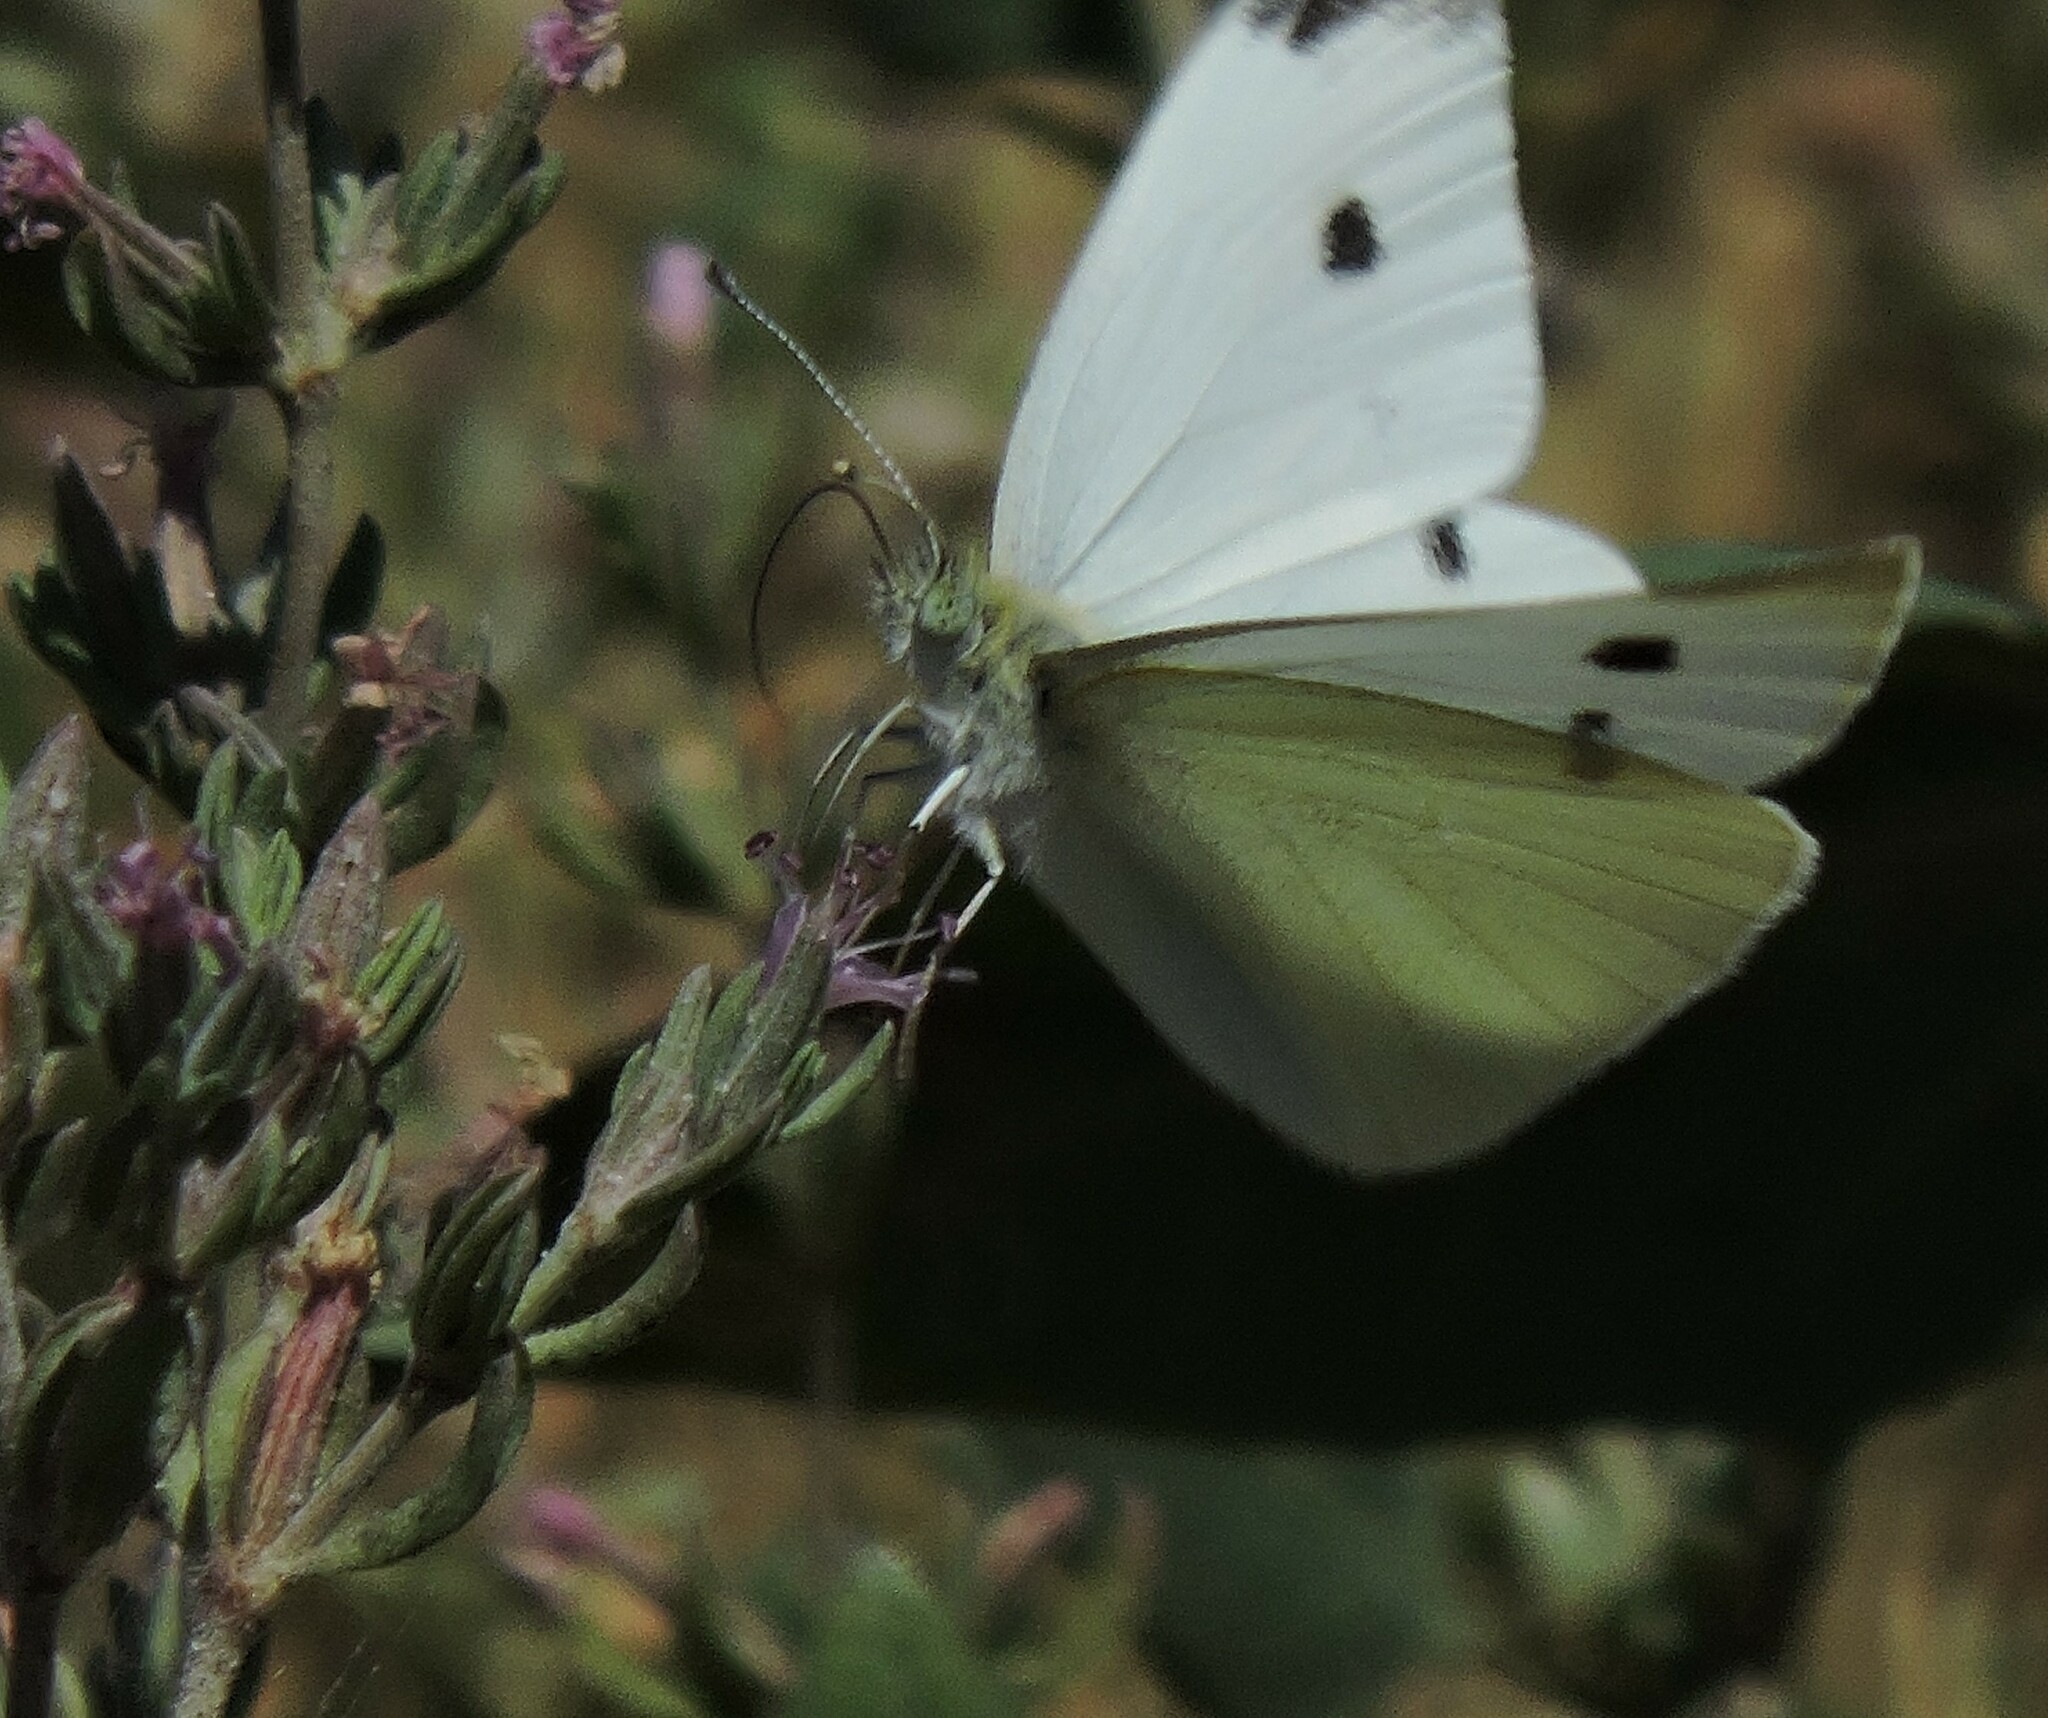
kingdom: Animalia
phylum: Arthropoda
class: Insecta
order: Lepidoptera
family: Pieridae
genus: Pieris
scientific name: Pieris rapae
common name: Small white
